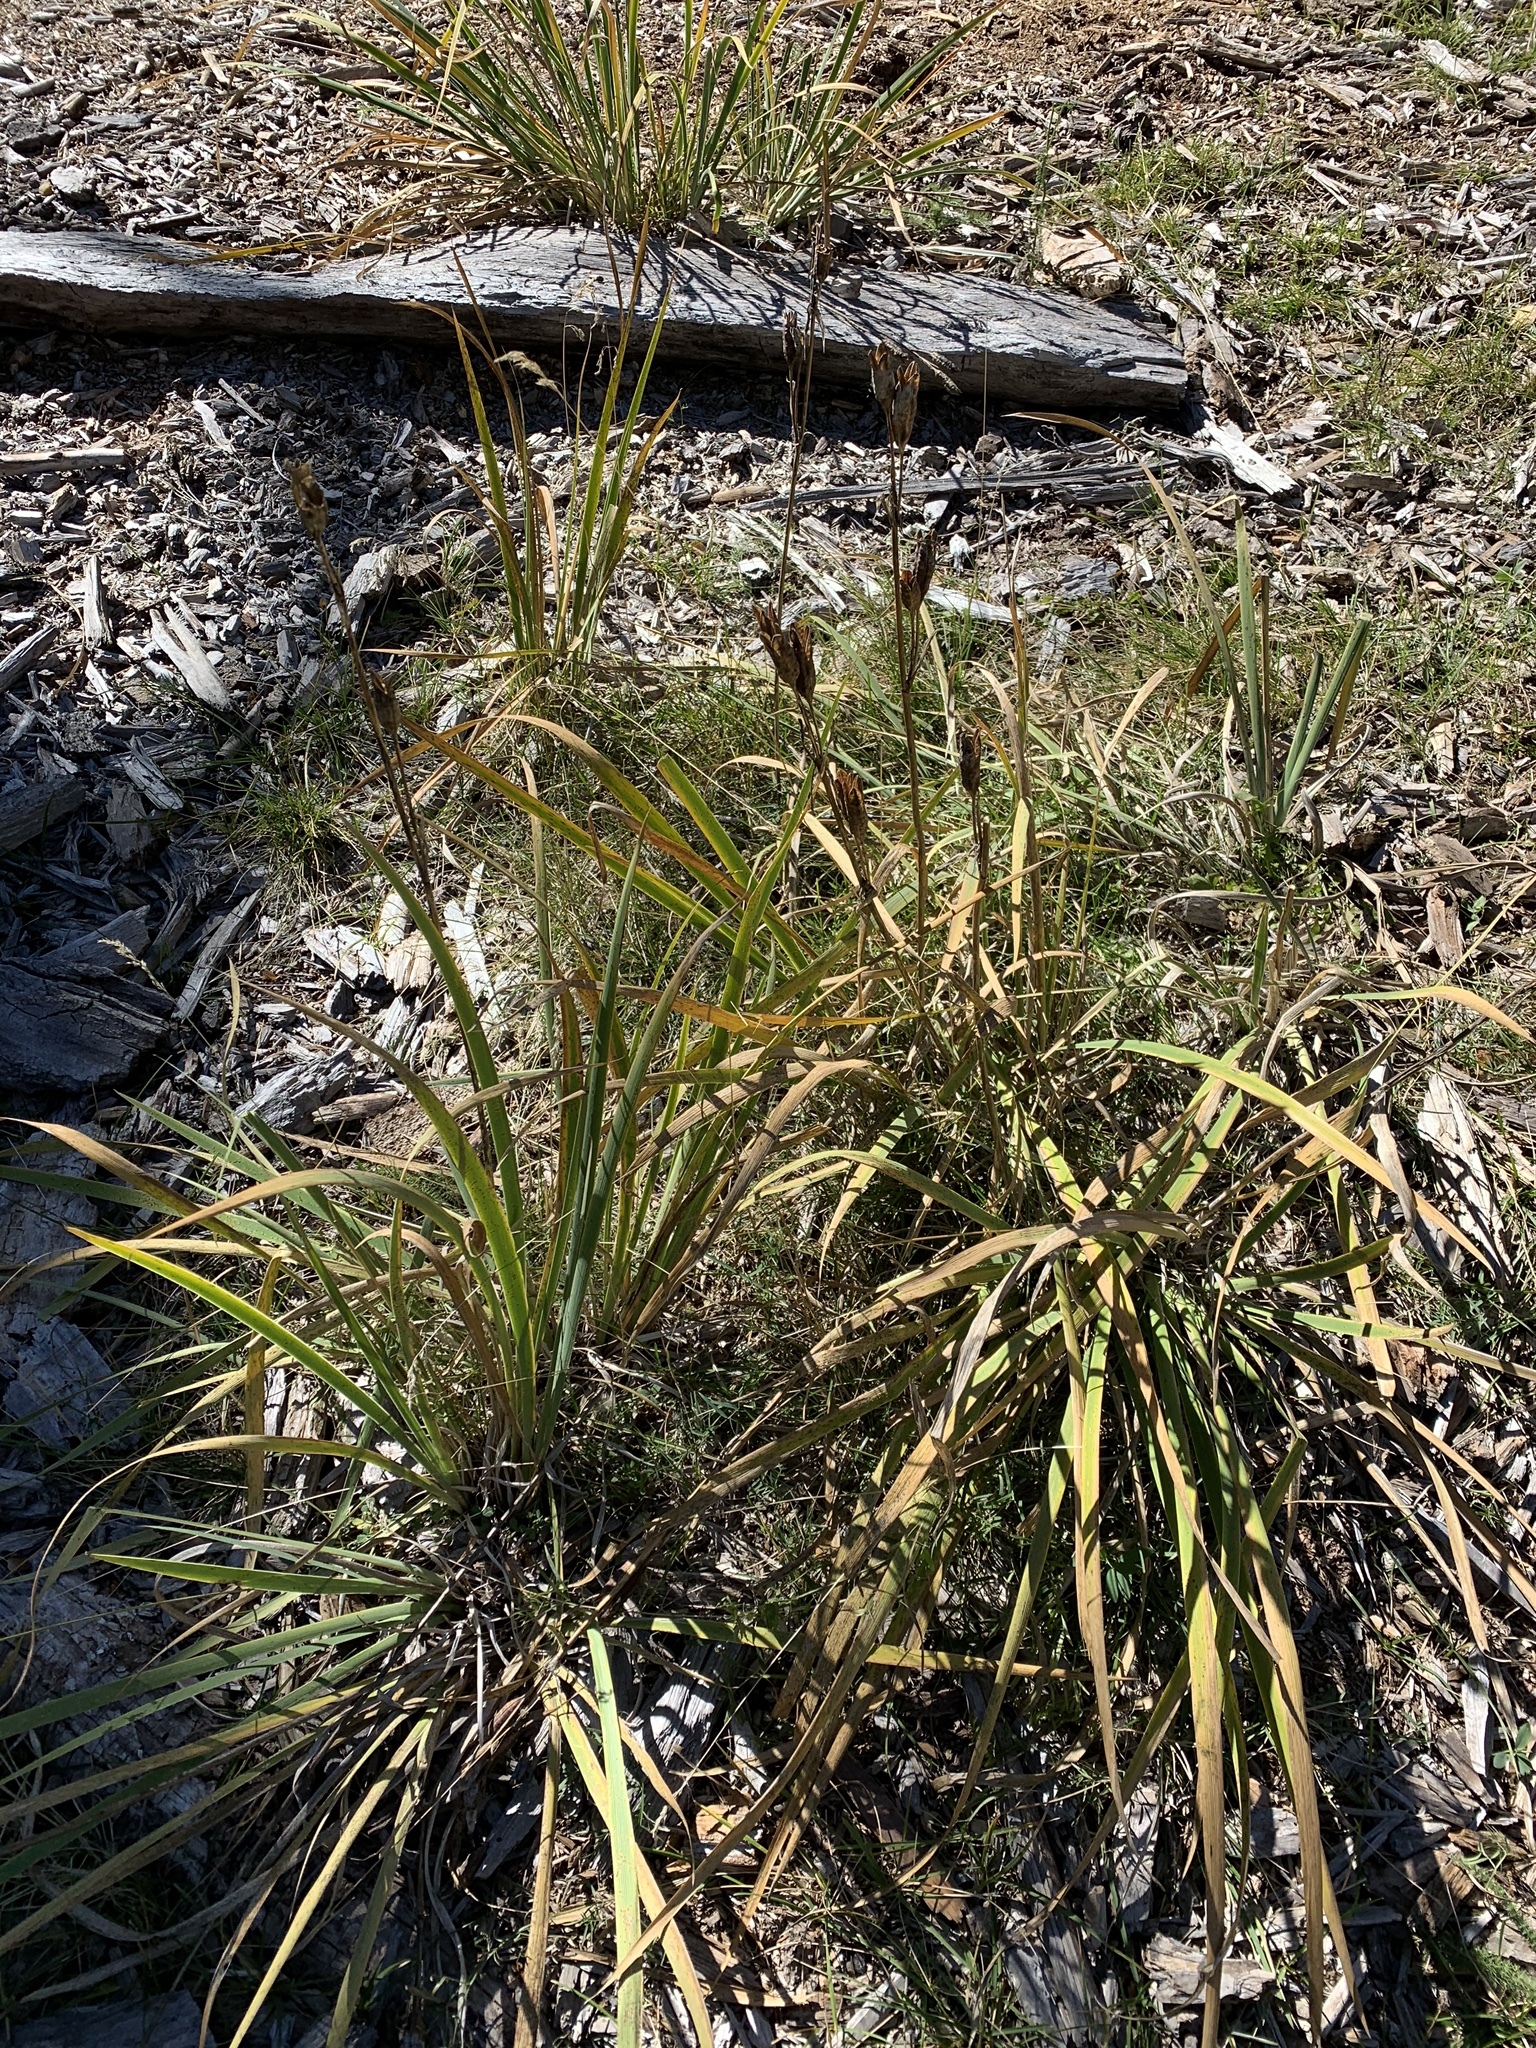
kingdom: Plantae
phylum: Tracheophyta
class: Liliopsida
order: Asparagales
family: Iridaceae
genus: Iris
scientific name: Iris missouriensis
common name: Rocky mountain iris
